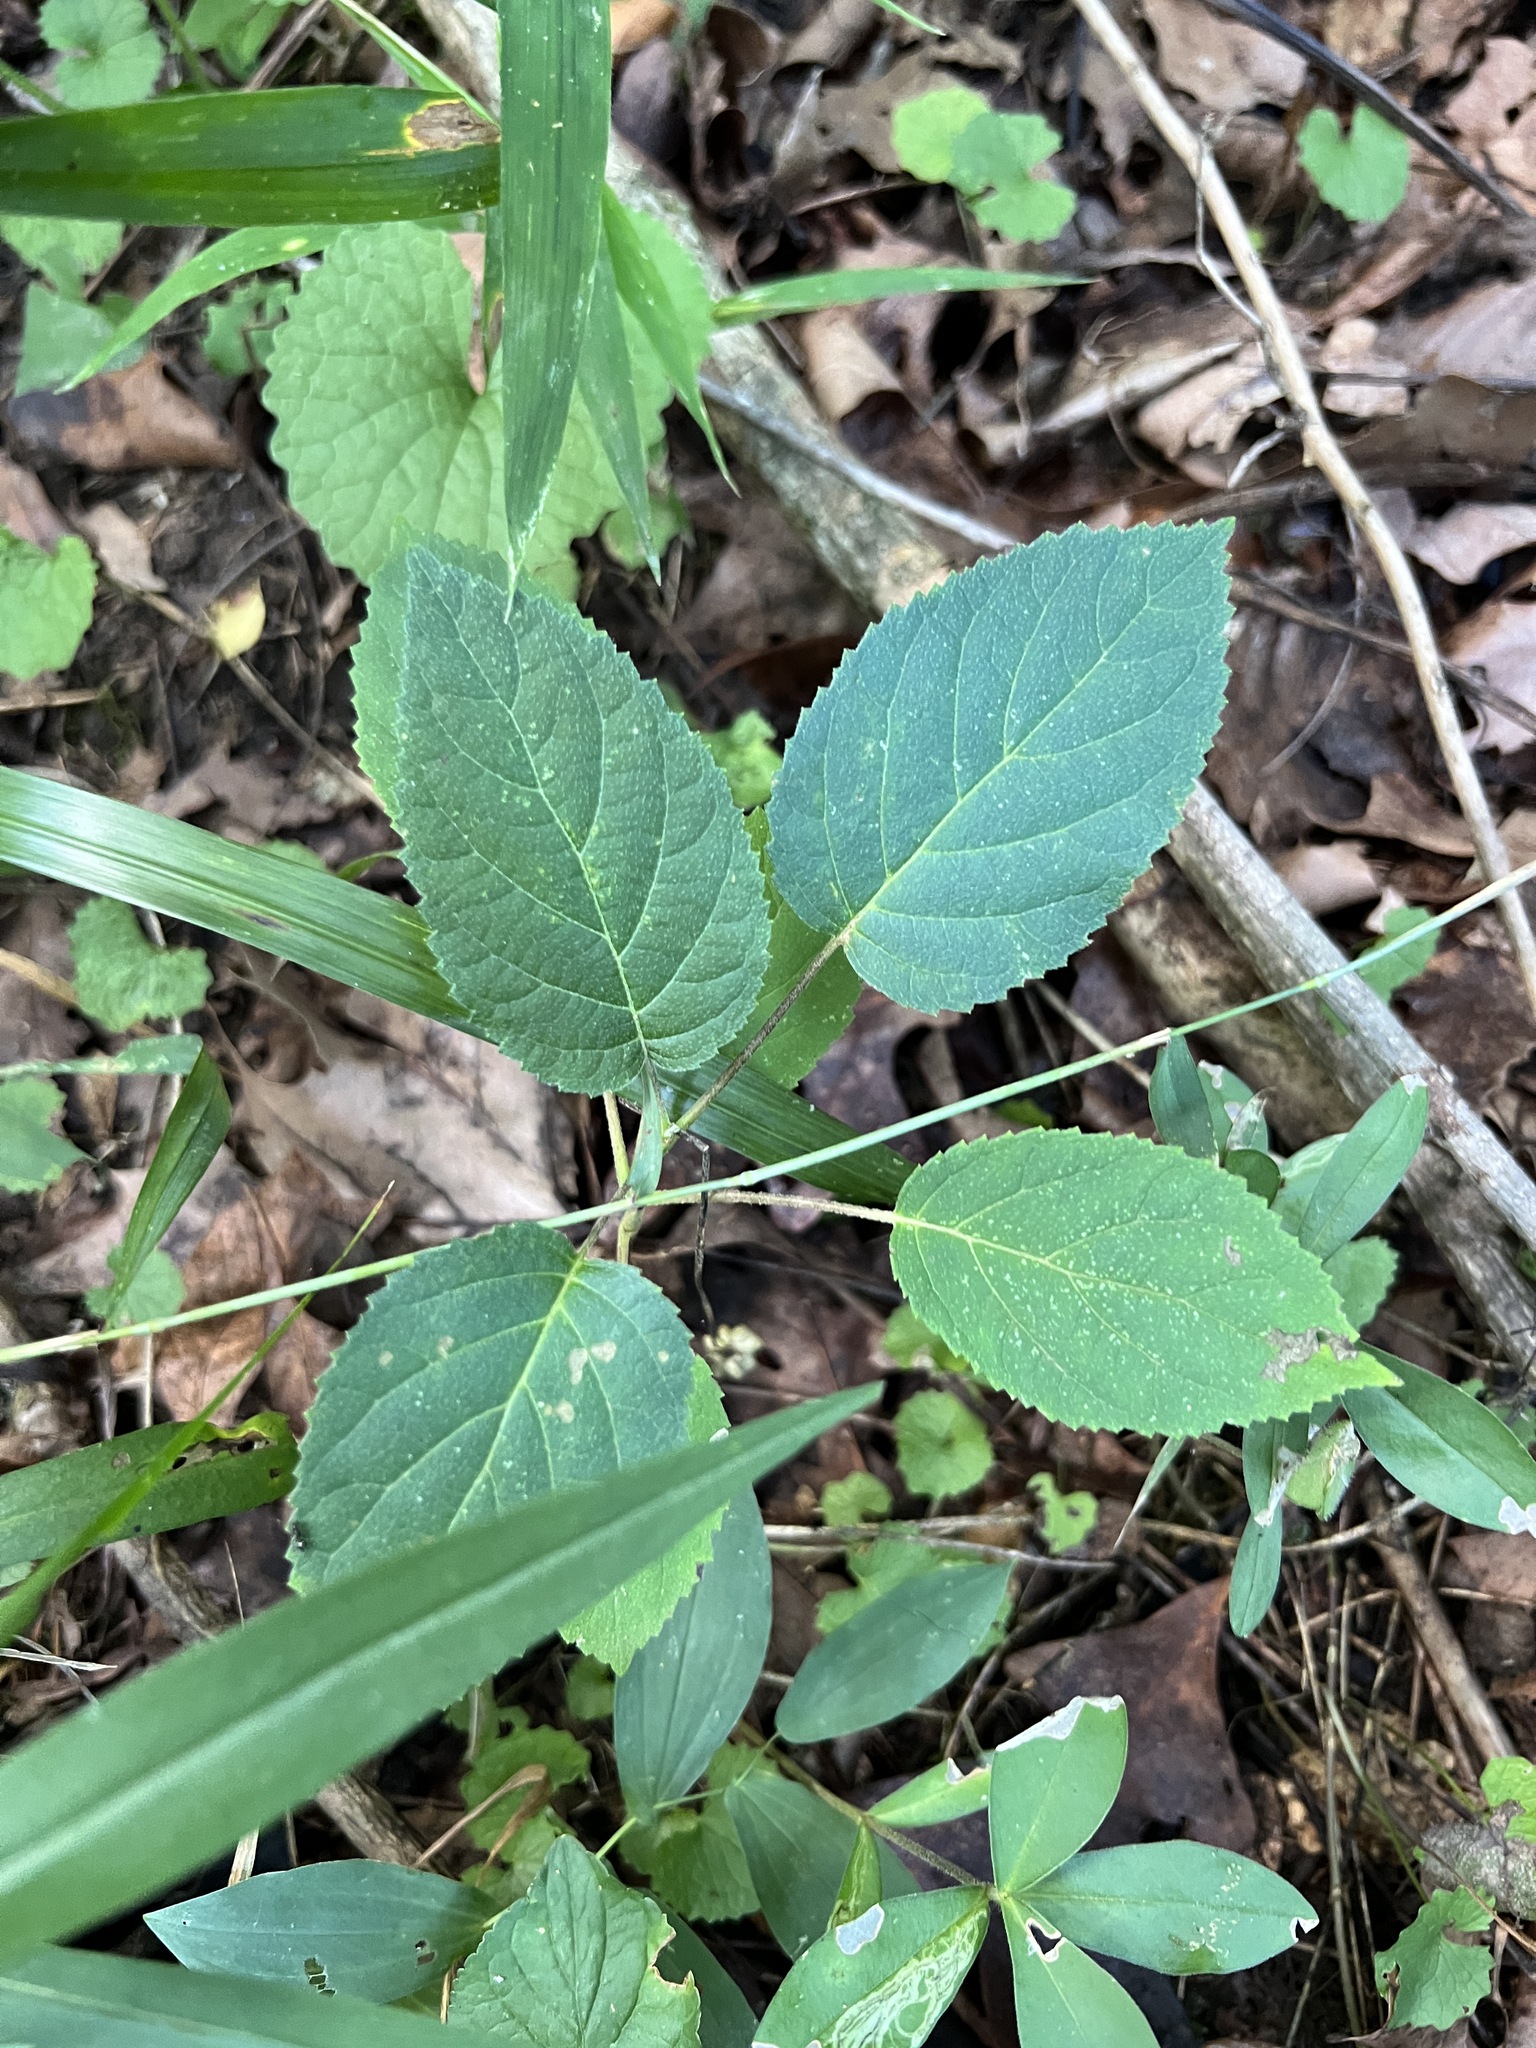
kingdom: Plantae
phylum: Tracheophyta
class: Magnoliopsida
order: Cornales
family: Hydrangeaceae
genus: Hydrangea
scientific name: Hydrangea arborescens
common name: Sevenbark
